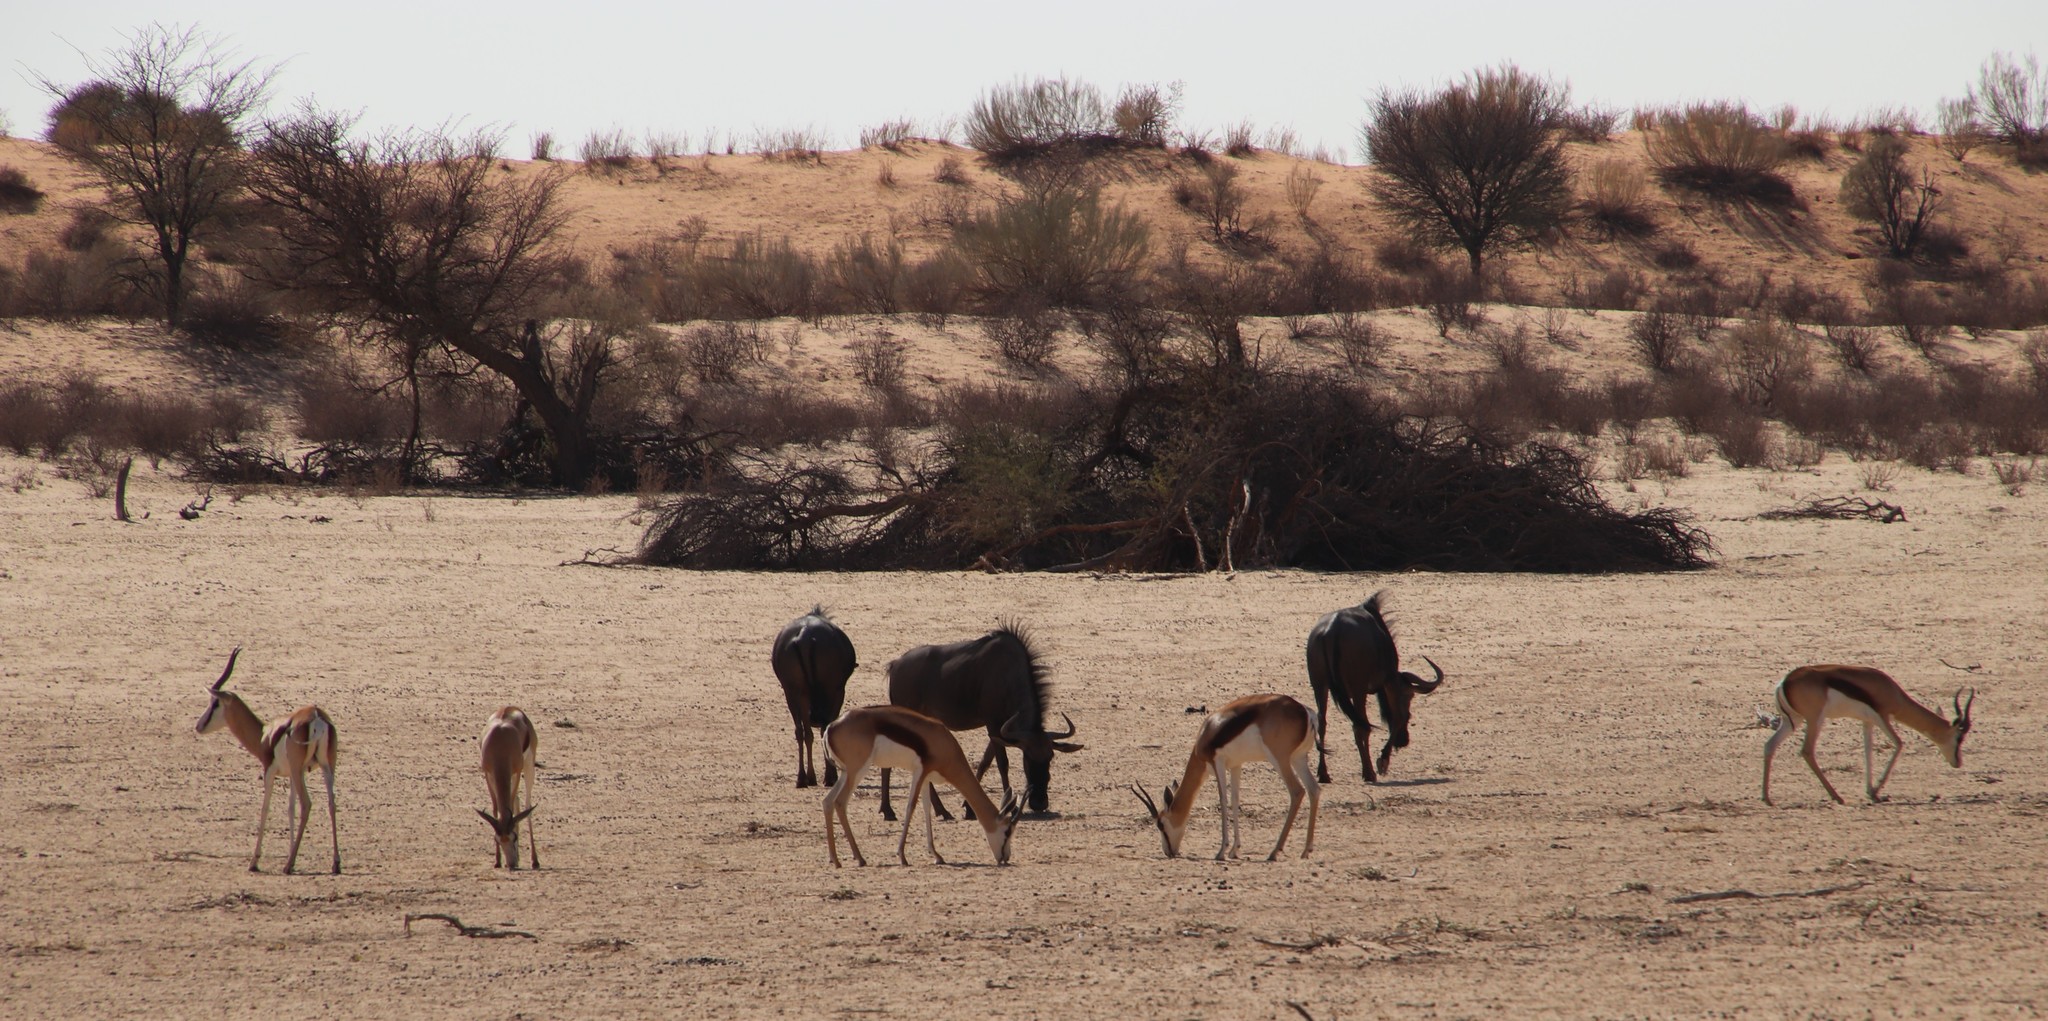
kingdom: Animalia
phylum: Chordata
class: Mammalia
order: Artiodactyla
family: Bovidae
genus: Antidorcas
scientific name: Antidorcas marsupialis
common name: Springbok
